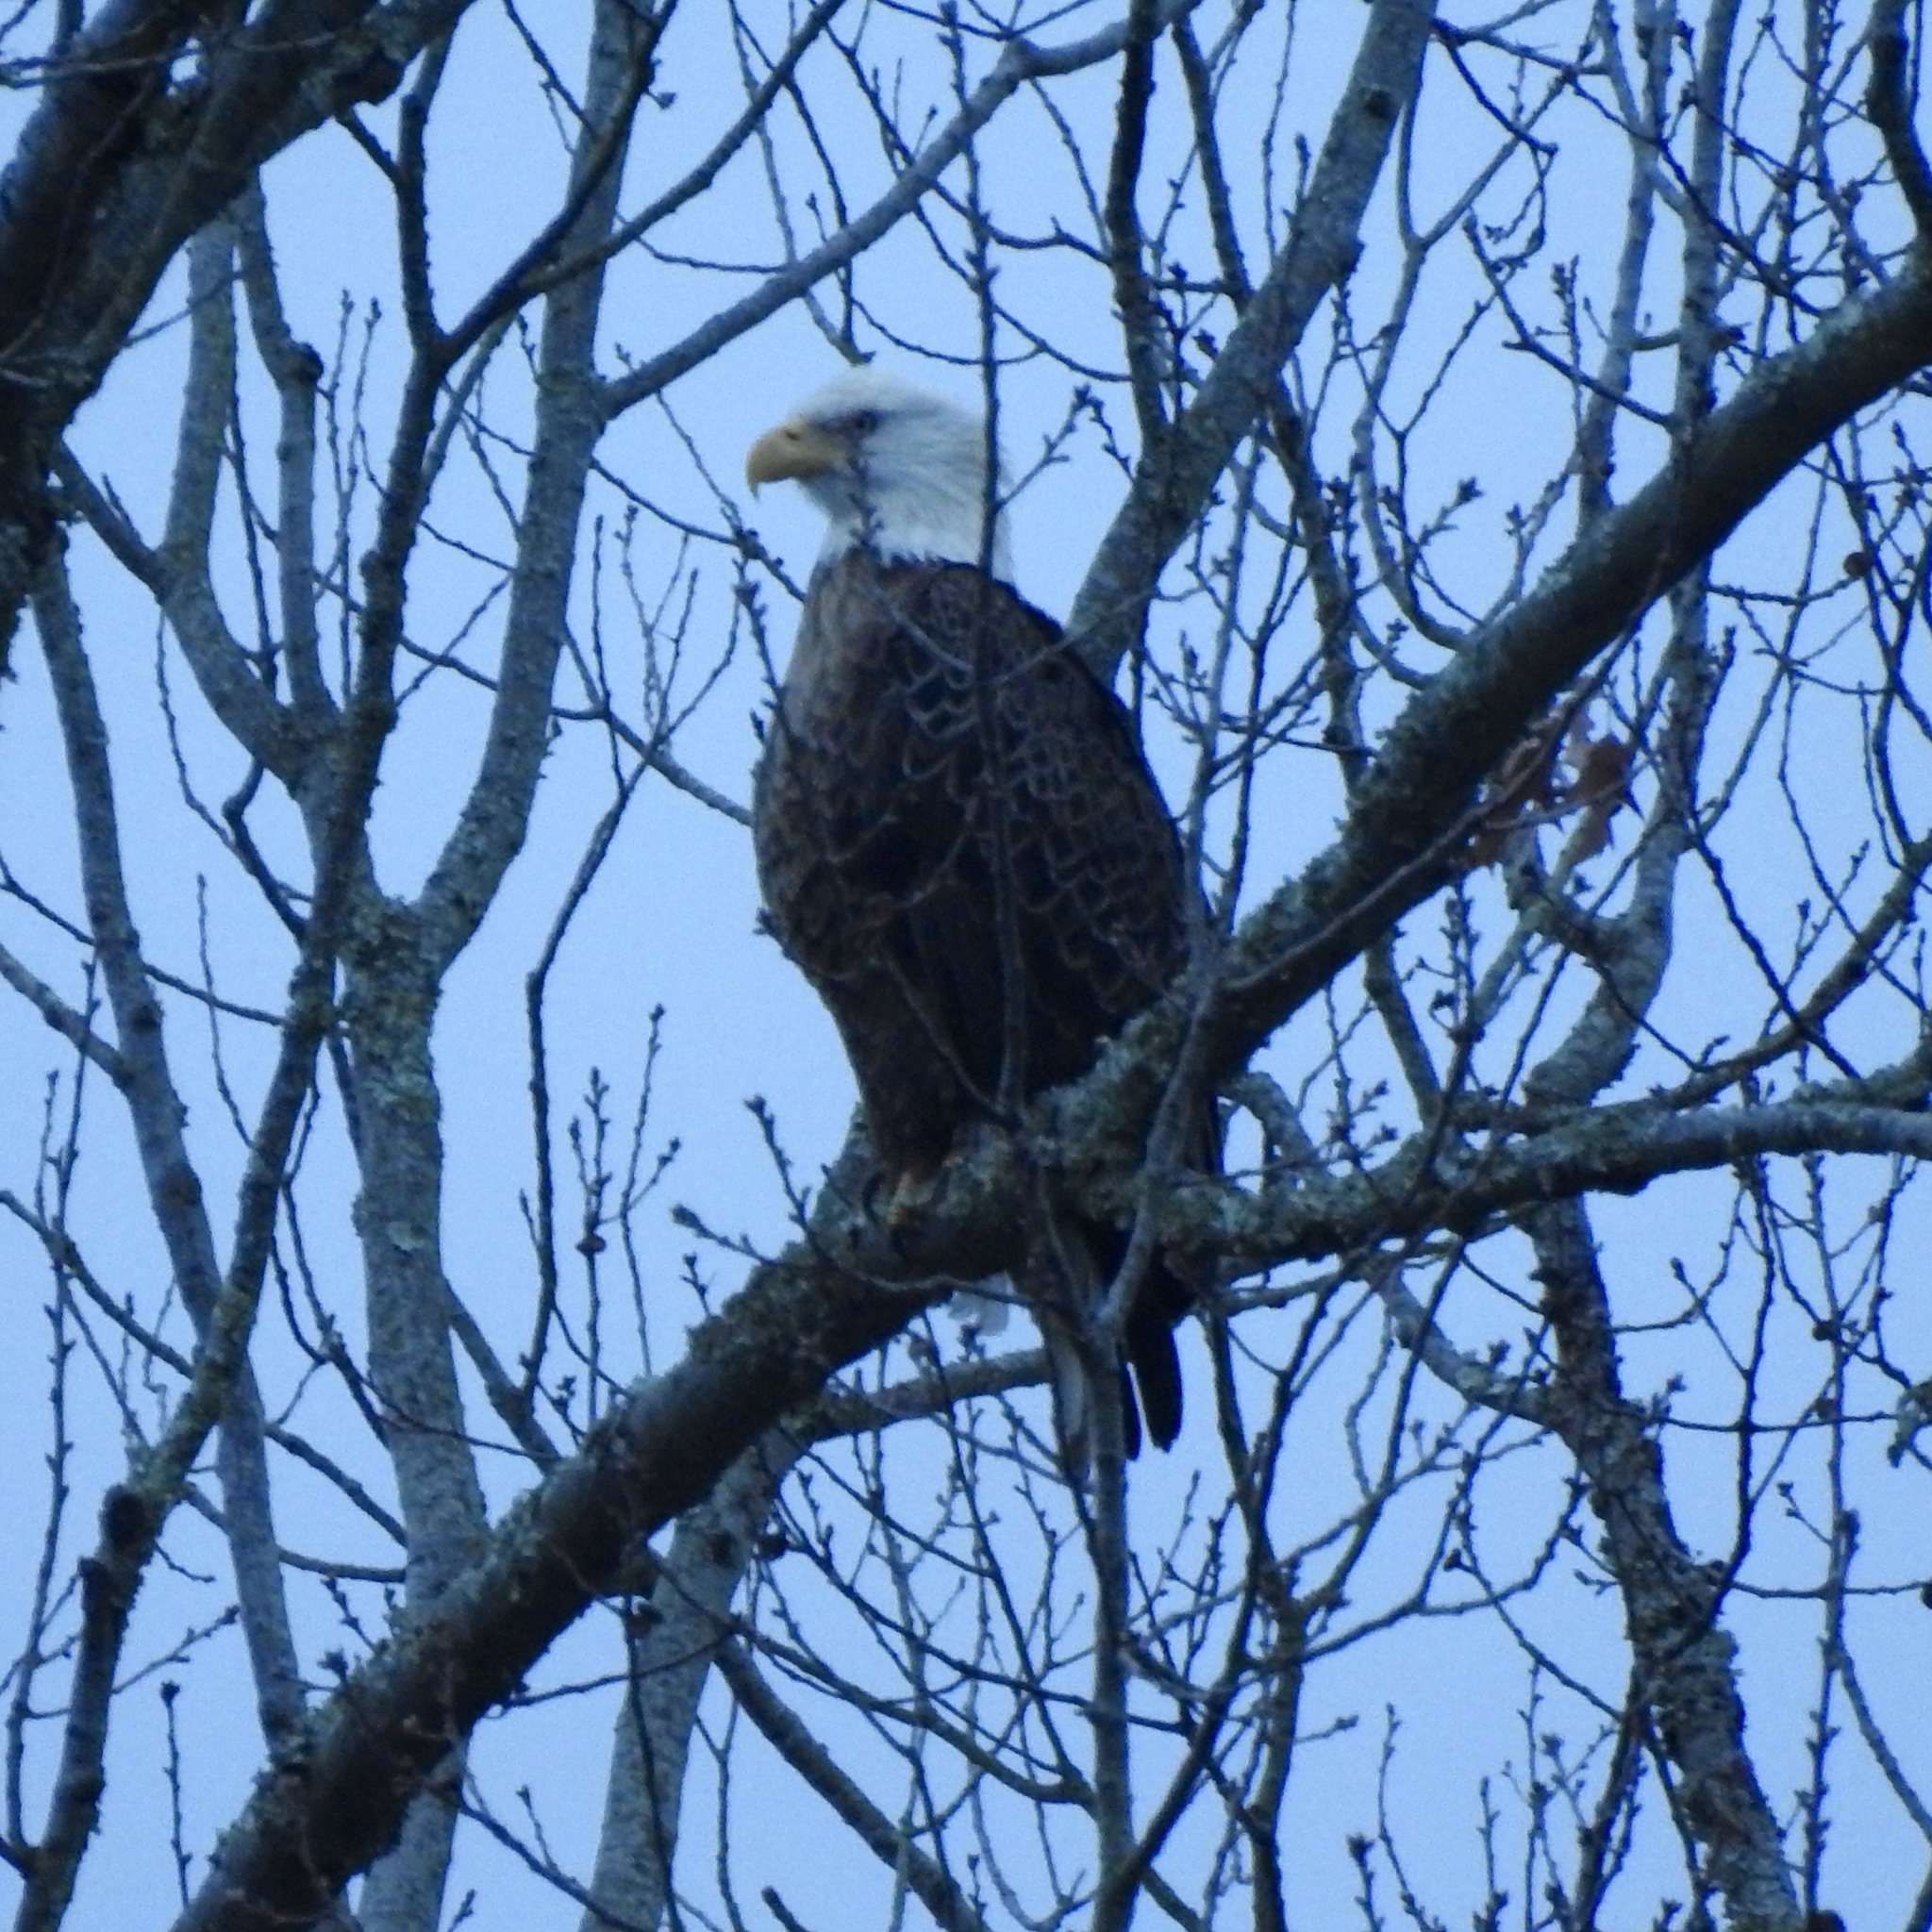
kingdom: Animalia
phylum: Chordata
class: Aves
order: Accipitriformes
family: Accipitridae
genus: Haliaeetus
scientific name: Haliaeetus leucocephalus
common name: Bald eagle
